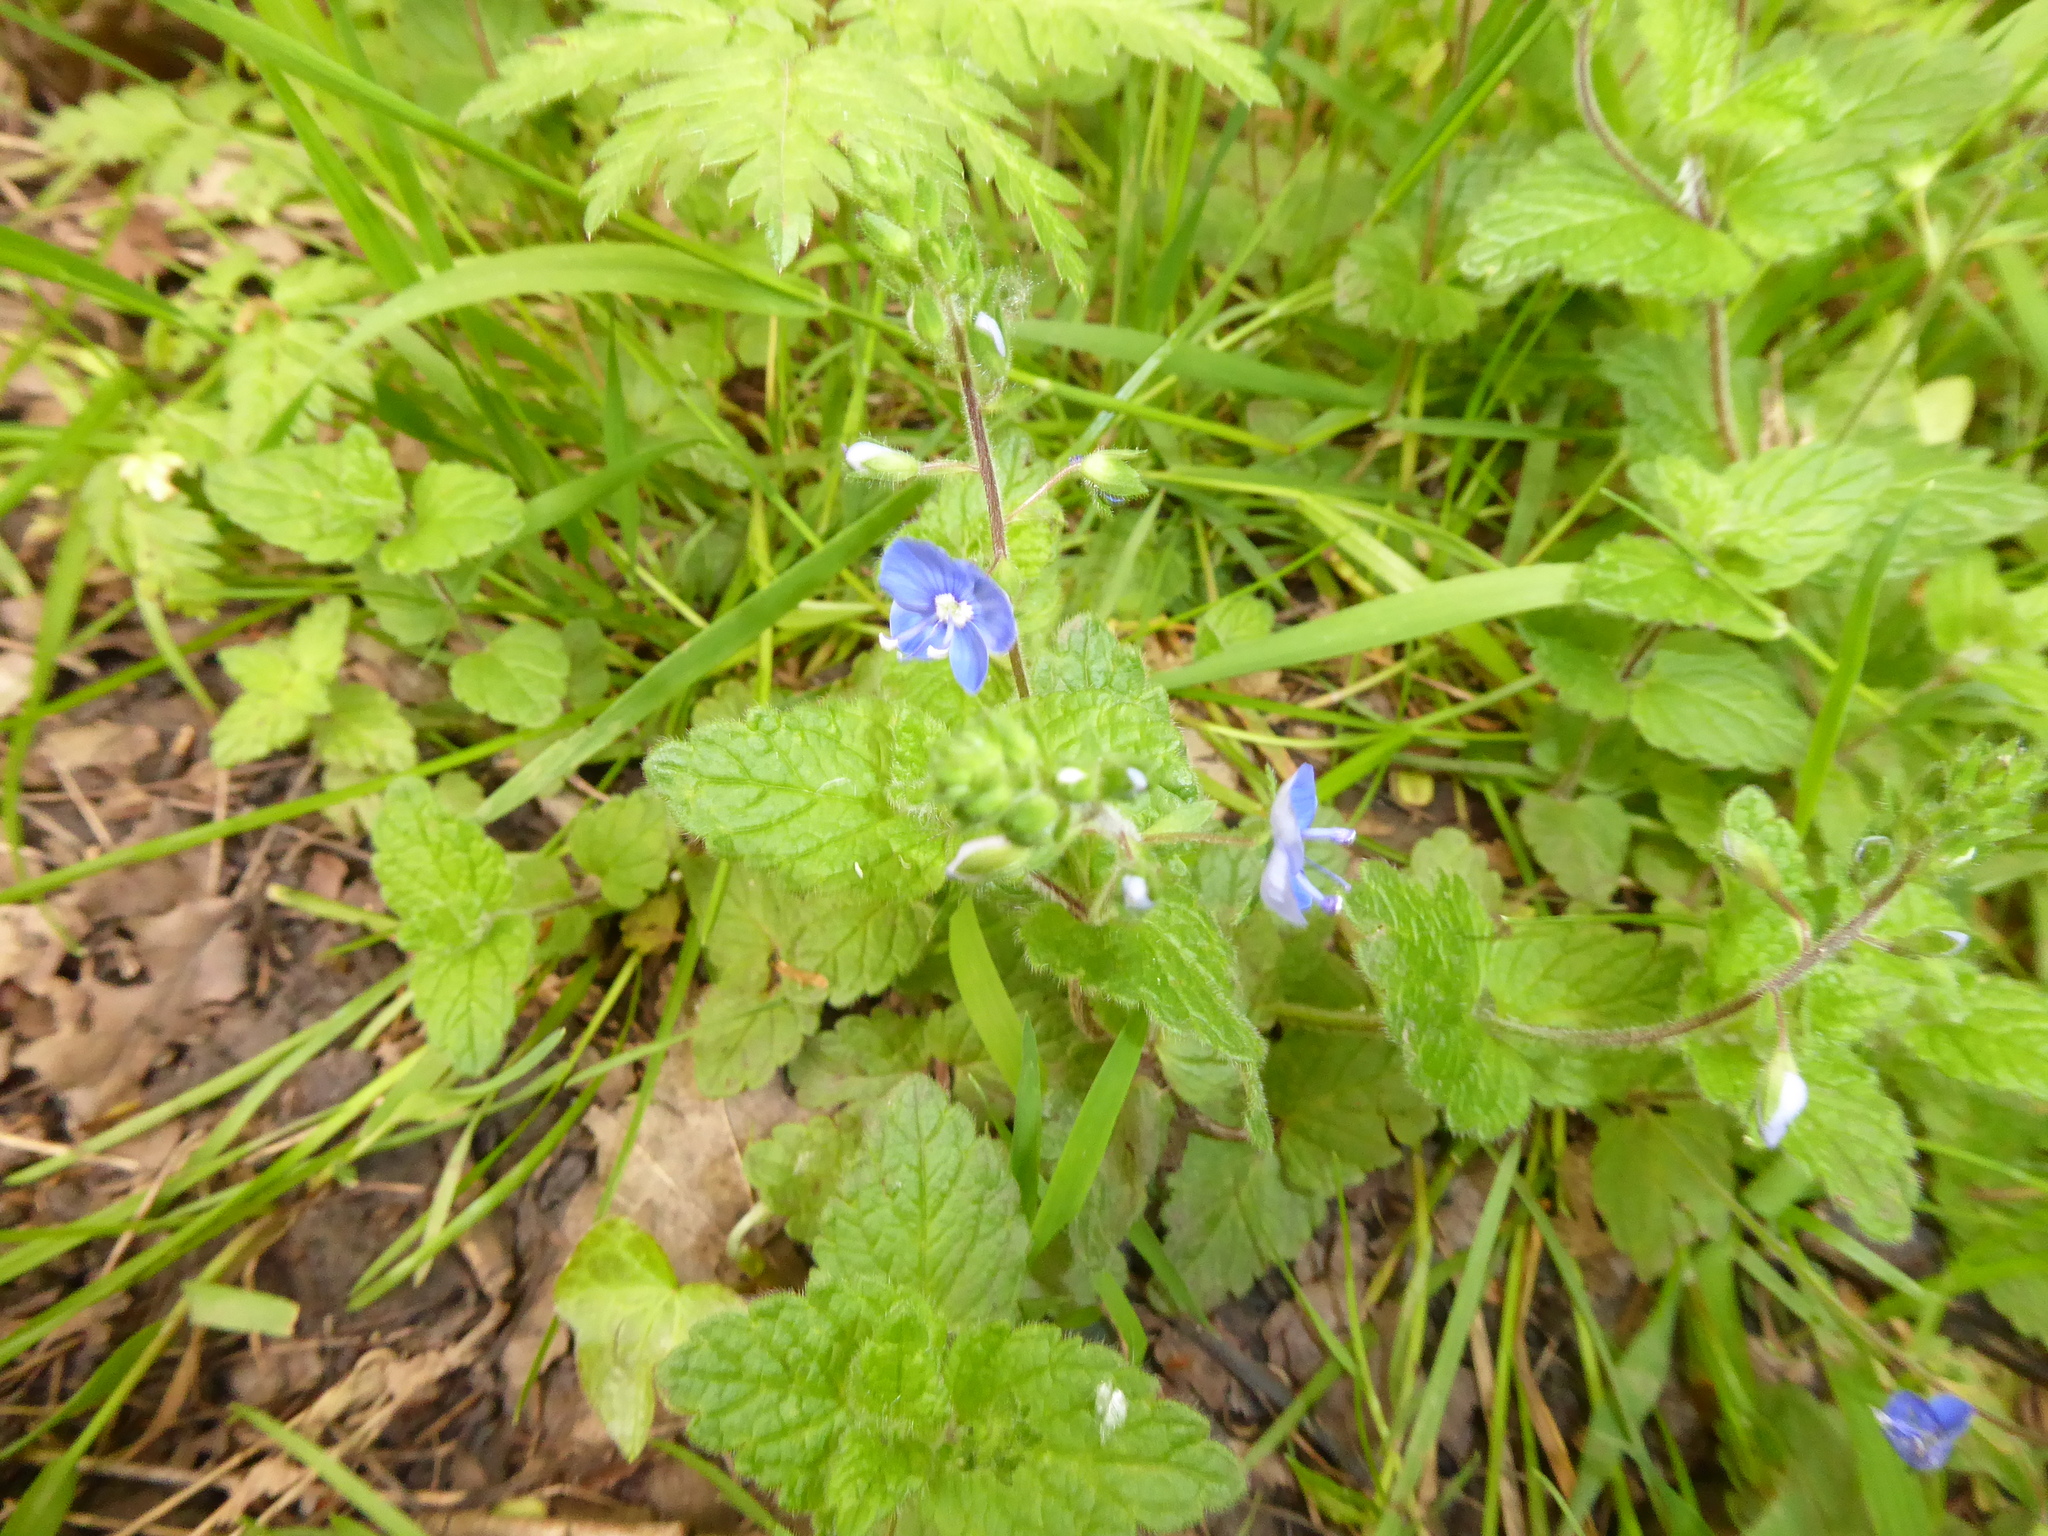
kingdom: Plantae
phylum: Tracheophyta
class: Magnoliopsida
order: Lamiales
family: Plantaginaceae
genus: Veronica
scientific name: Veronica chamaedrys
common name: Germander speedwell
